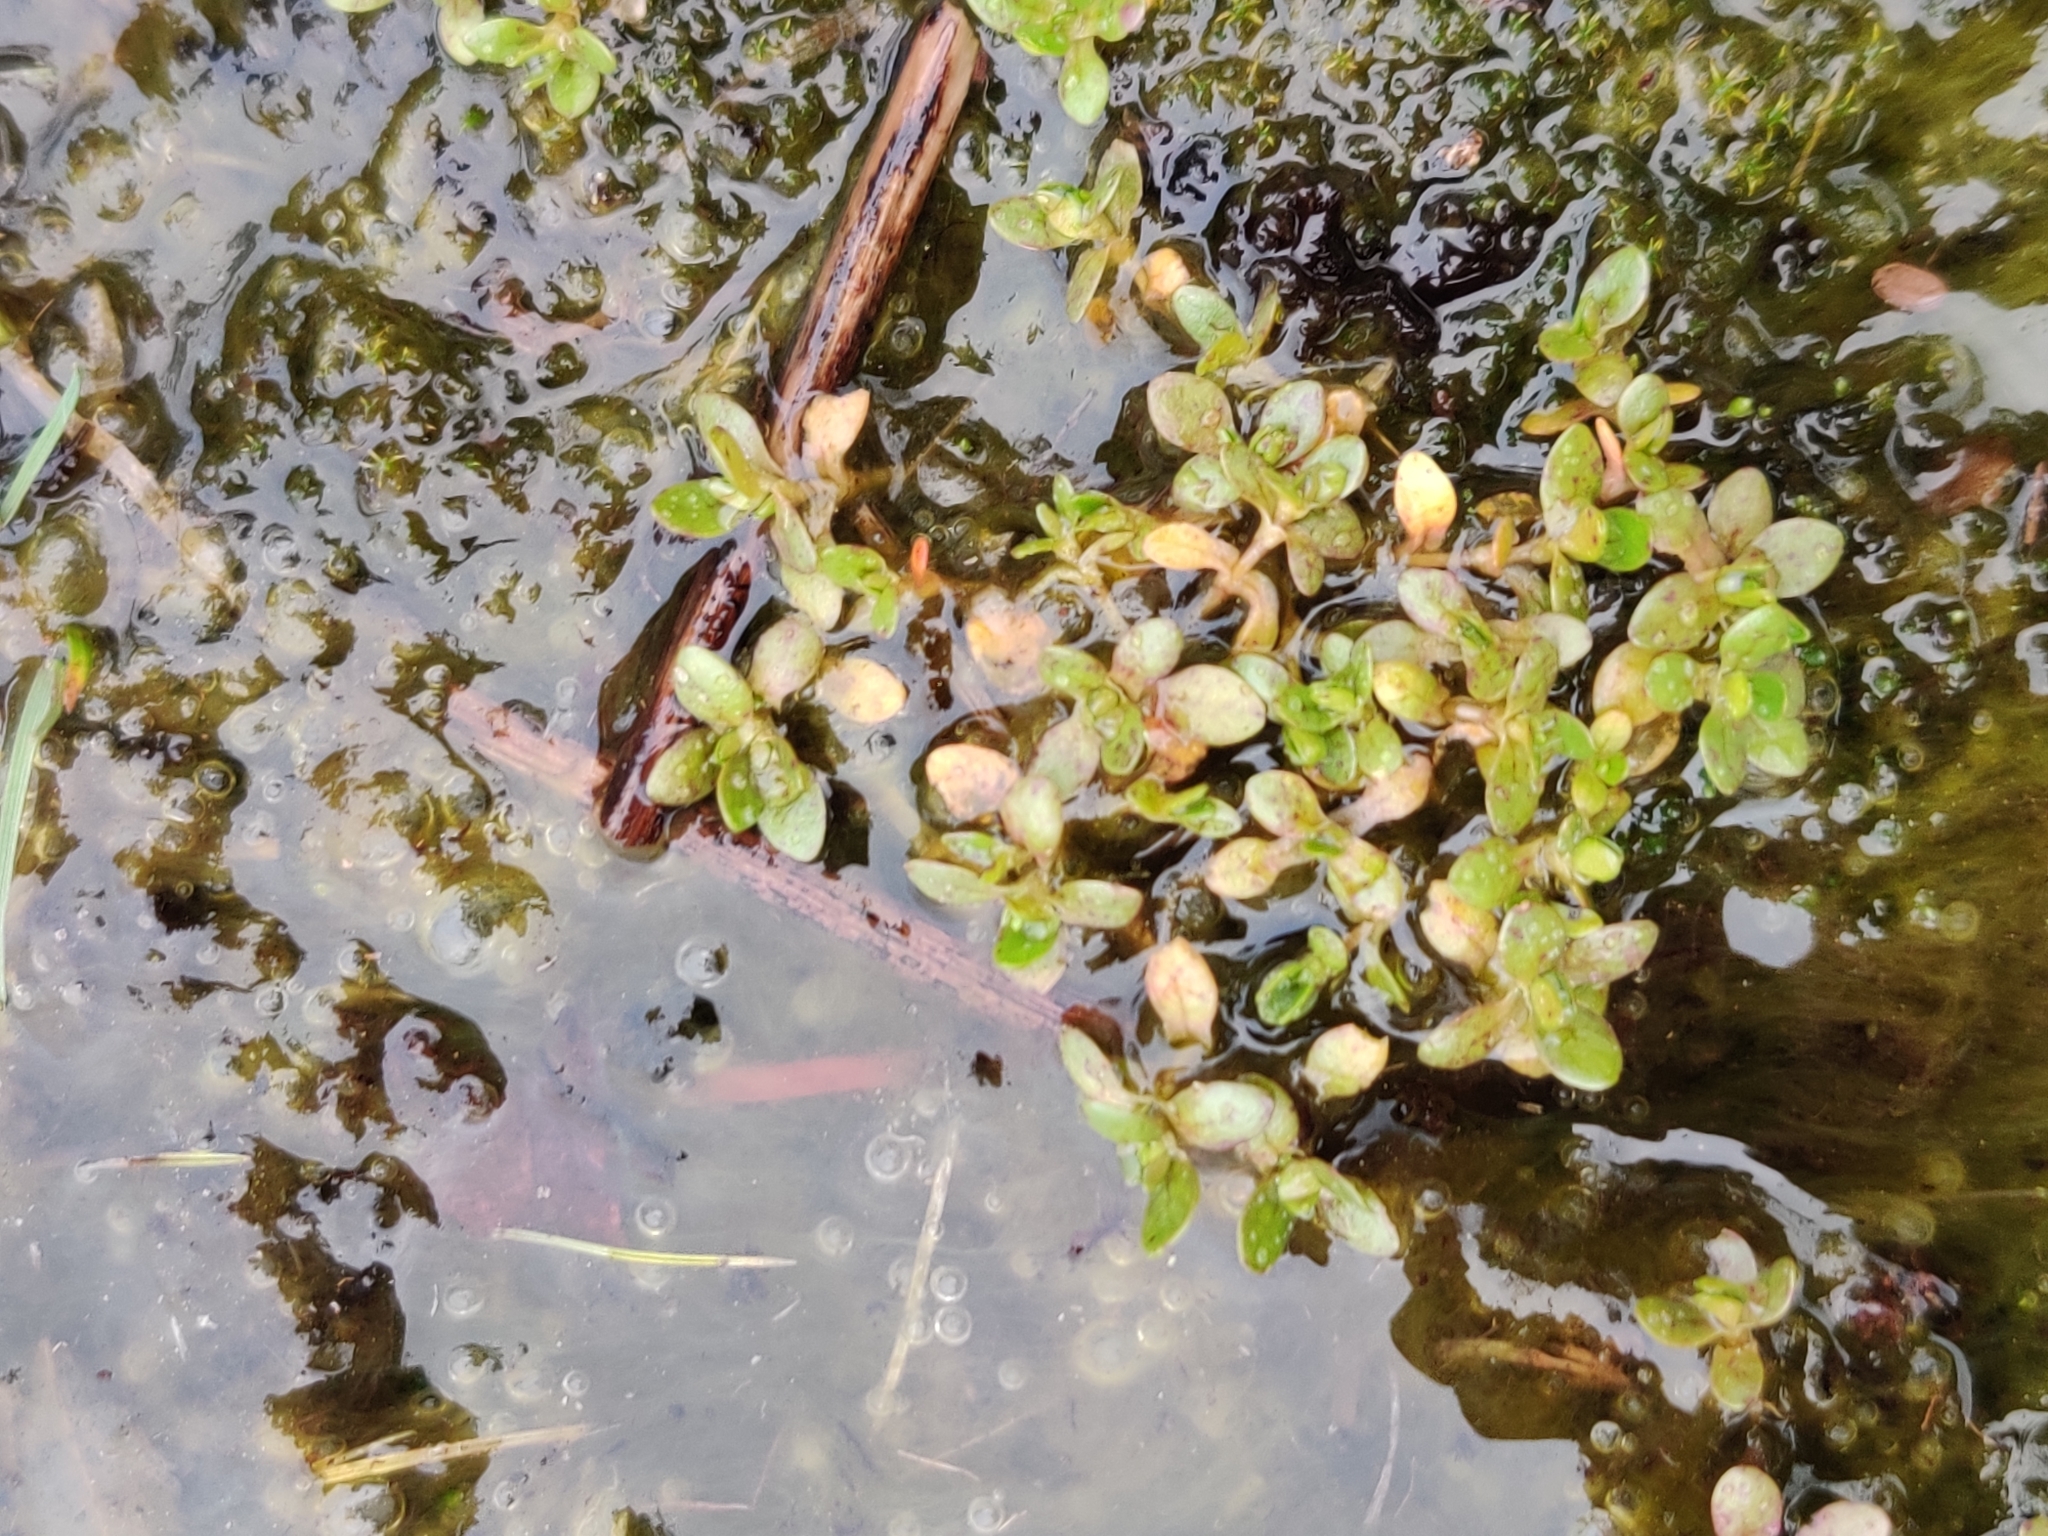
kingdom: Plantae
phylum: Tracheophyta
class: Magnoliopsida
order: Caryophyllales
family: Montiaceae
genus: Montia
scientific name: Montia fontana
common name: Blinks
